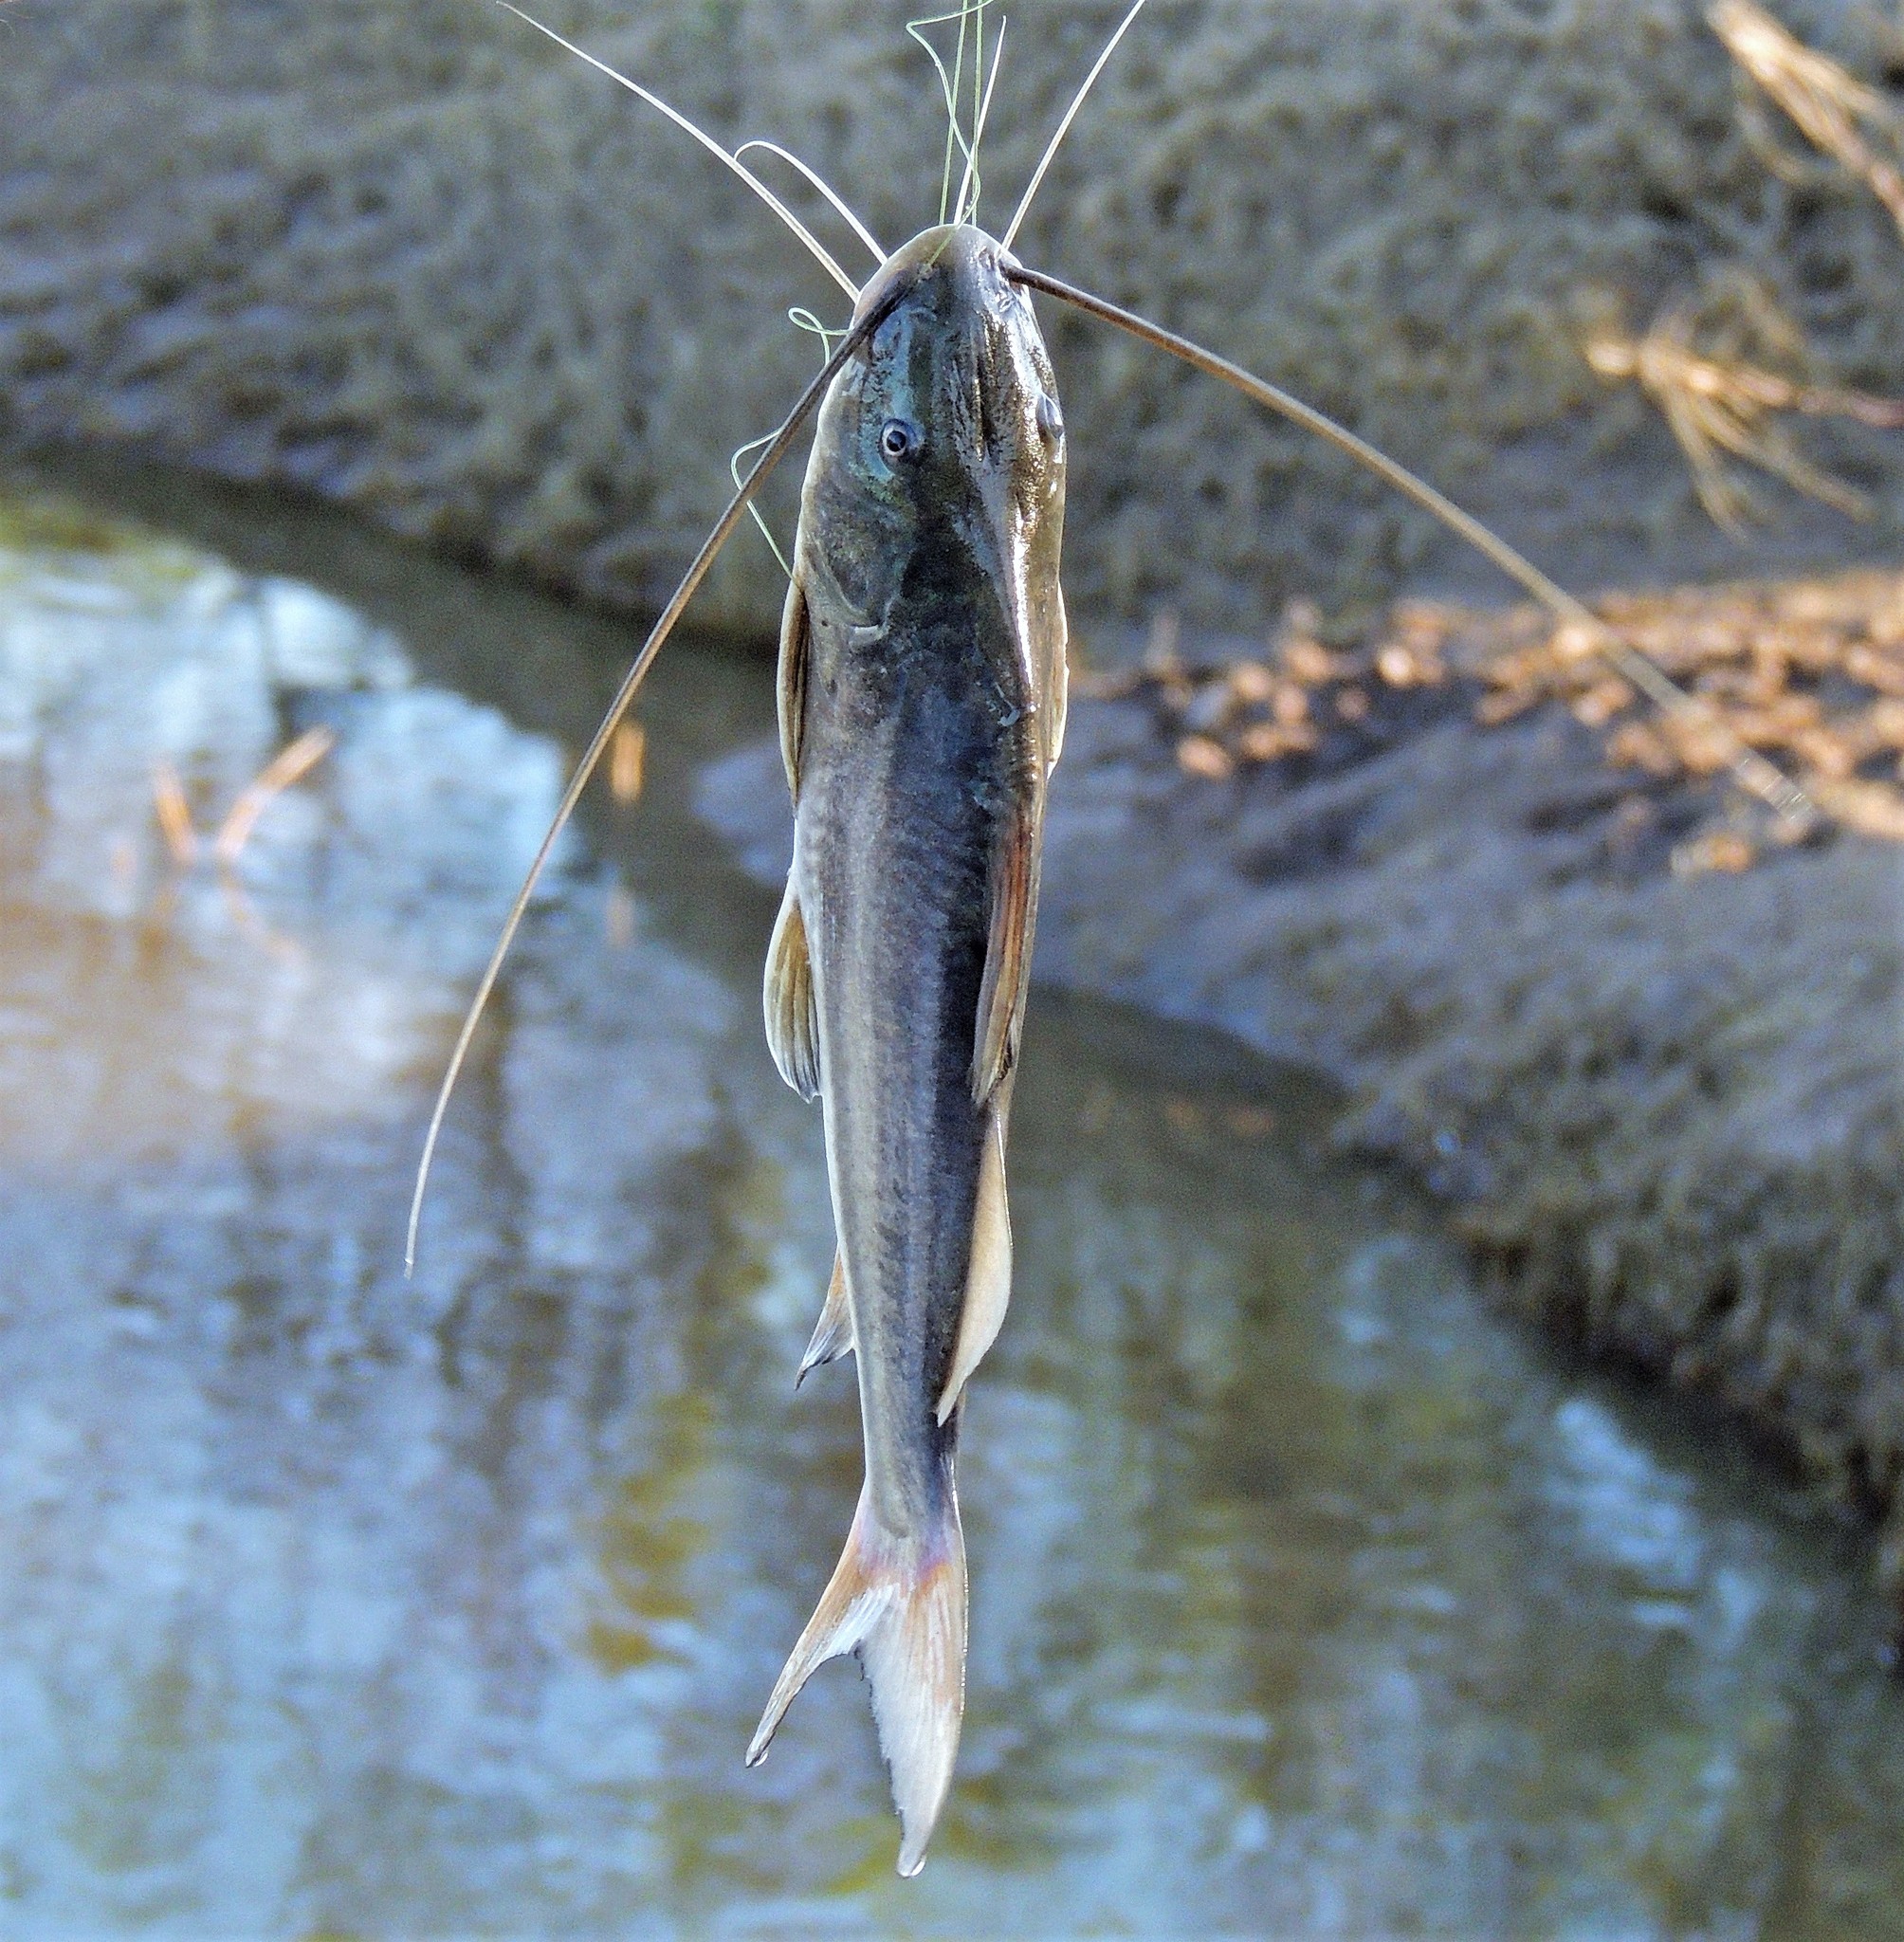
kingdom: Animalia
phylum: Chordata
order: Siluriformes
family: Pimelodidae
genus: Pimelodus
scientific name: Pimelodus albicans
